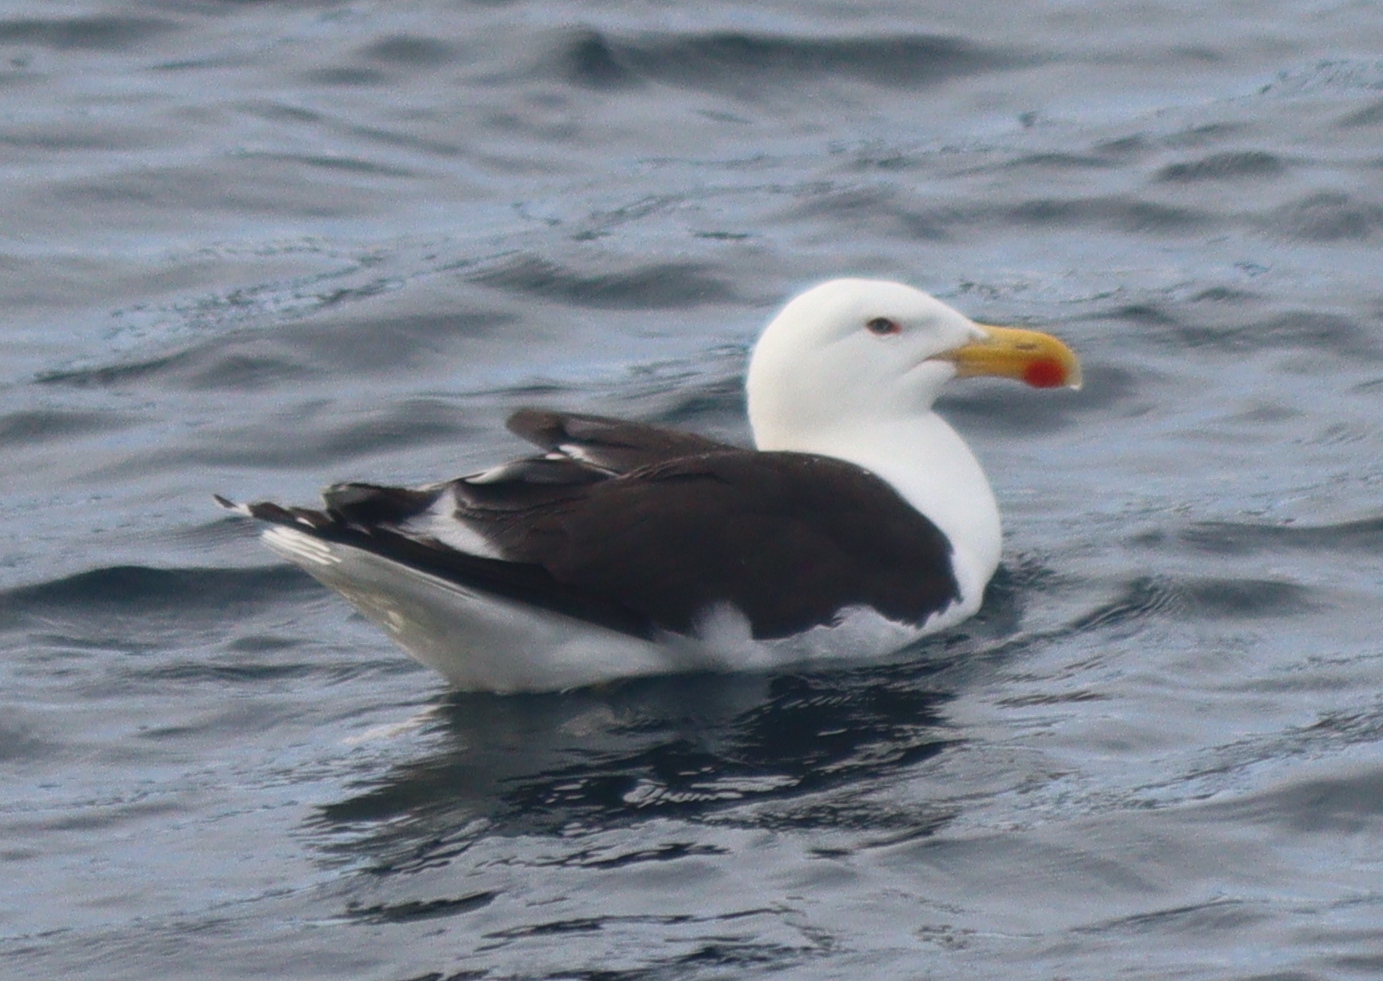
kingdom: Animalia
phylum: Chordata
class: Aves
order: Charadriiformes
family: Laridae
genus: Larus
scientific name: Larus marinus
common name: Great black-backed gull
